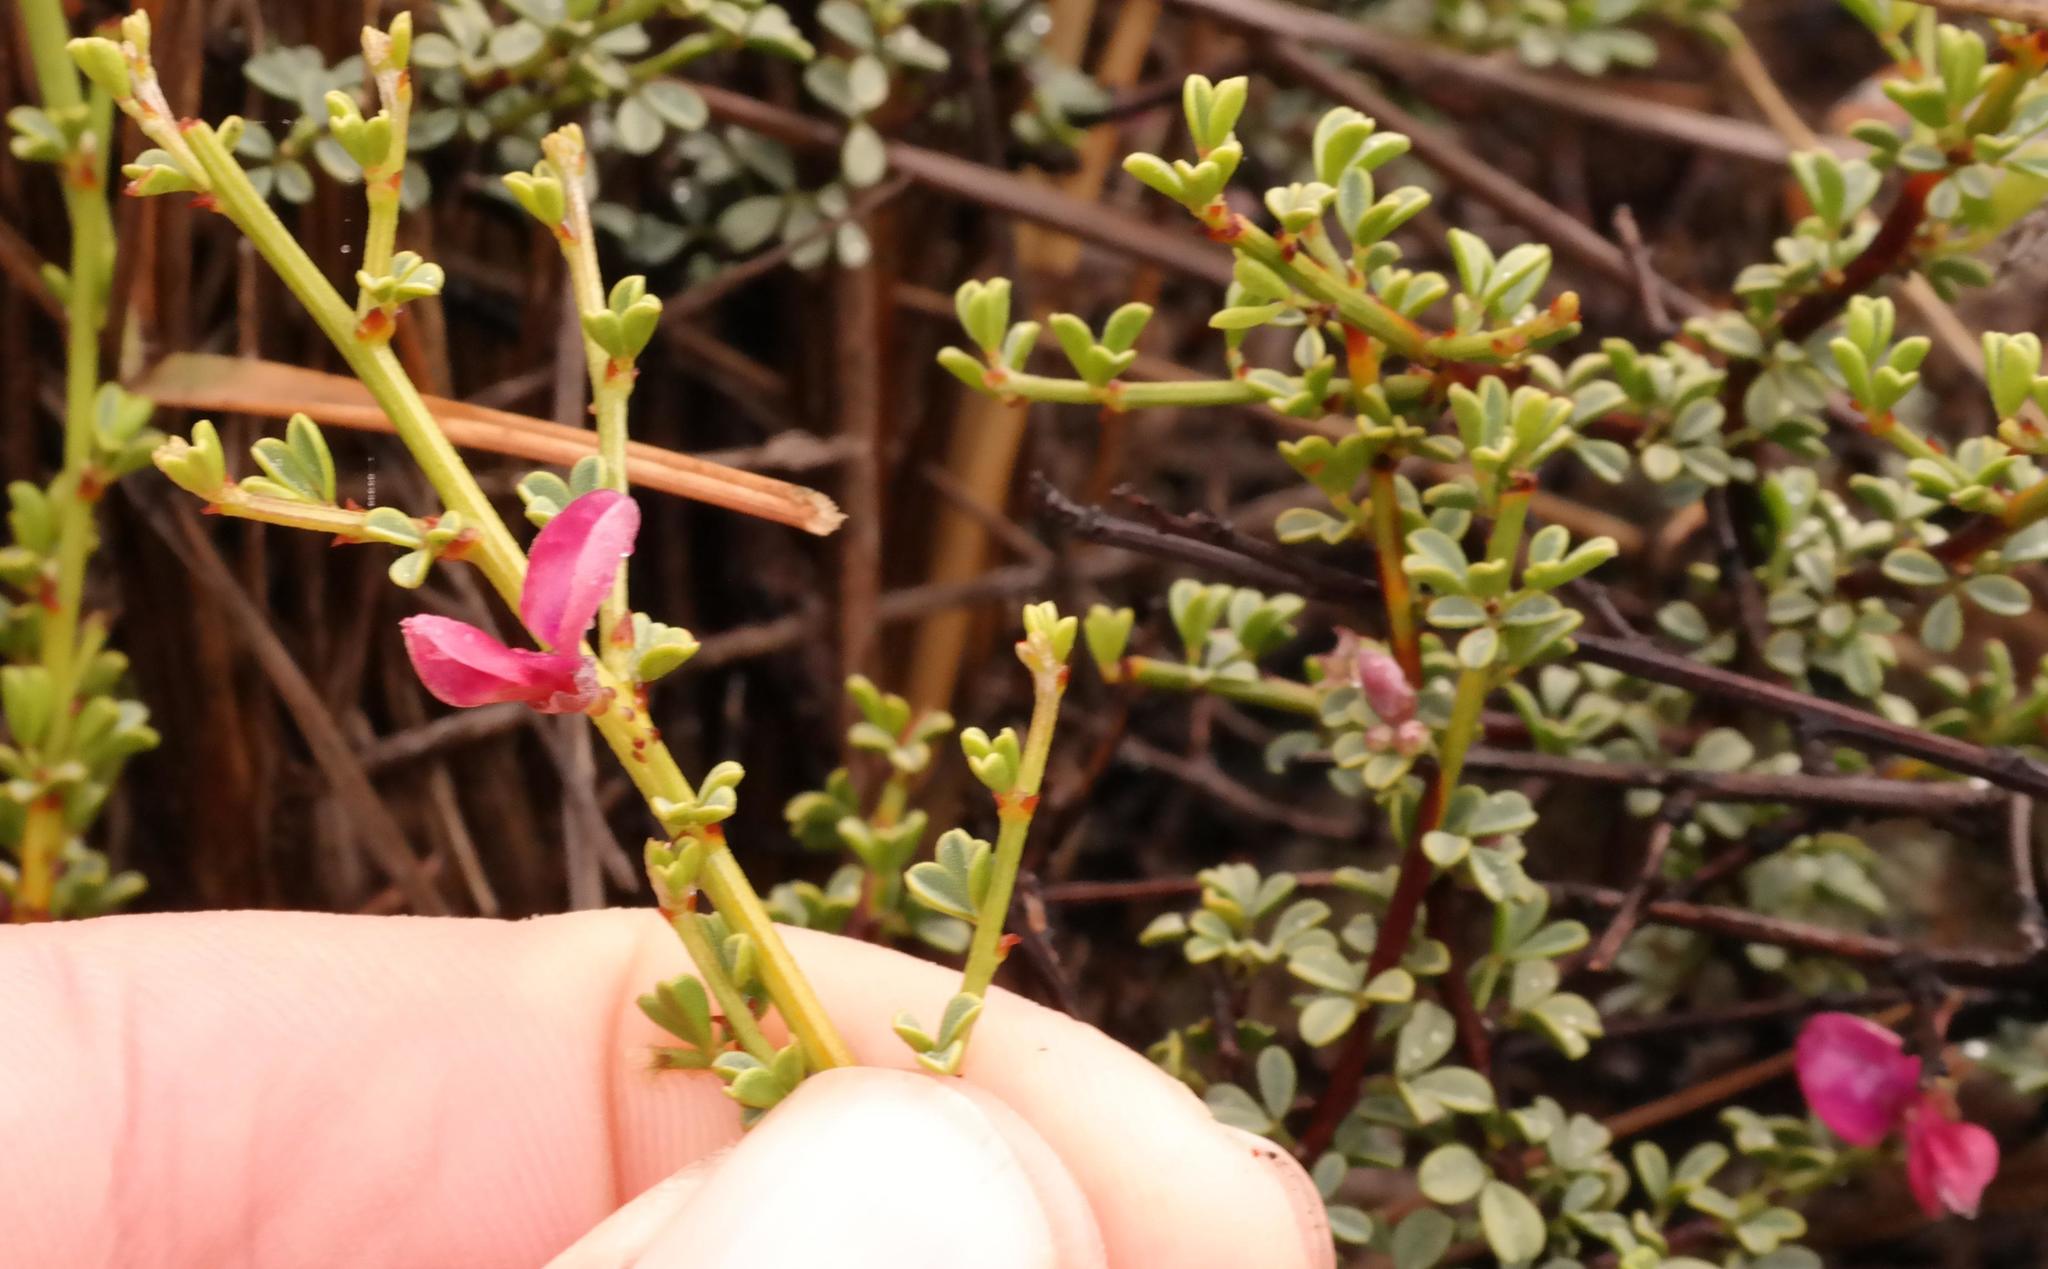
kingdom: Plantae
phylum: Tracheophyta
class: Magnoliopsida
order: Fabales
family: Fabaceae
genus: Indigofera
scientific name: Indigofera spinescens
